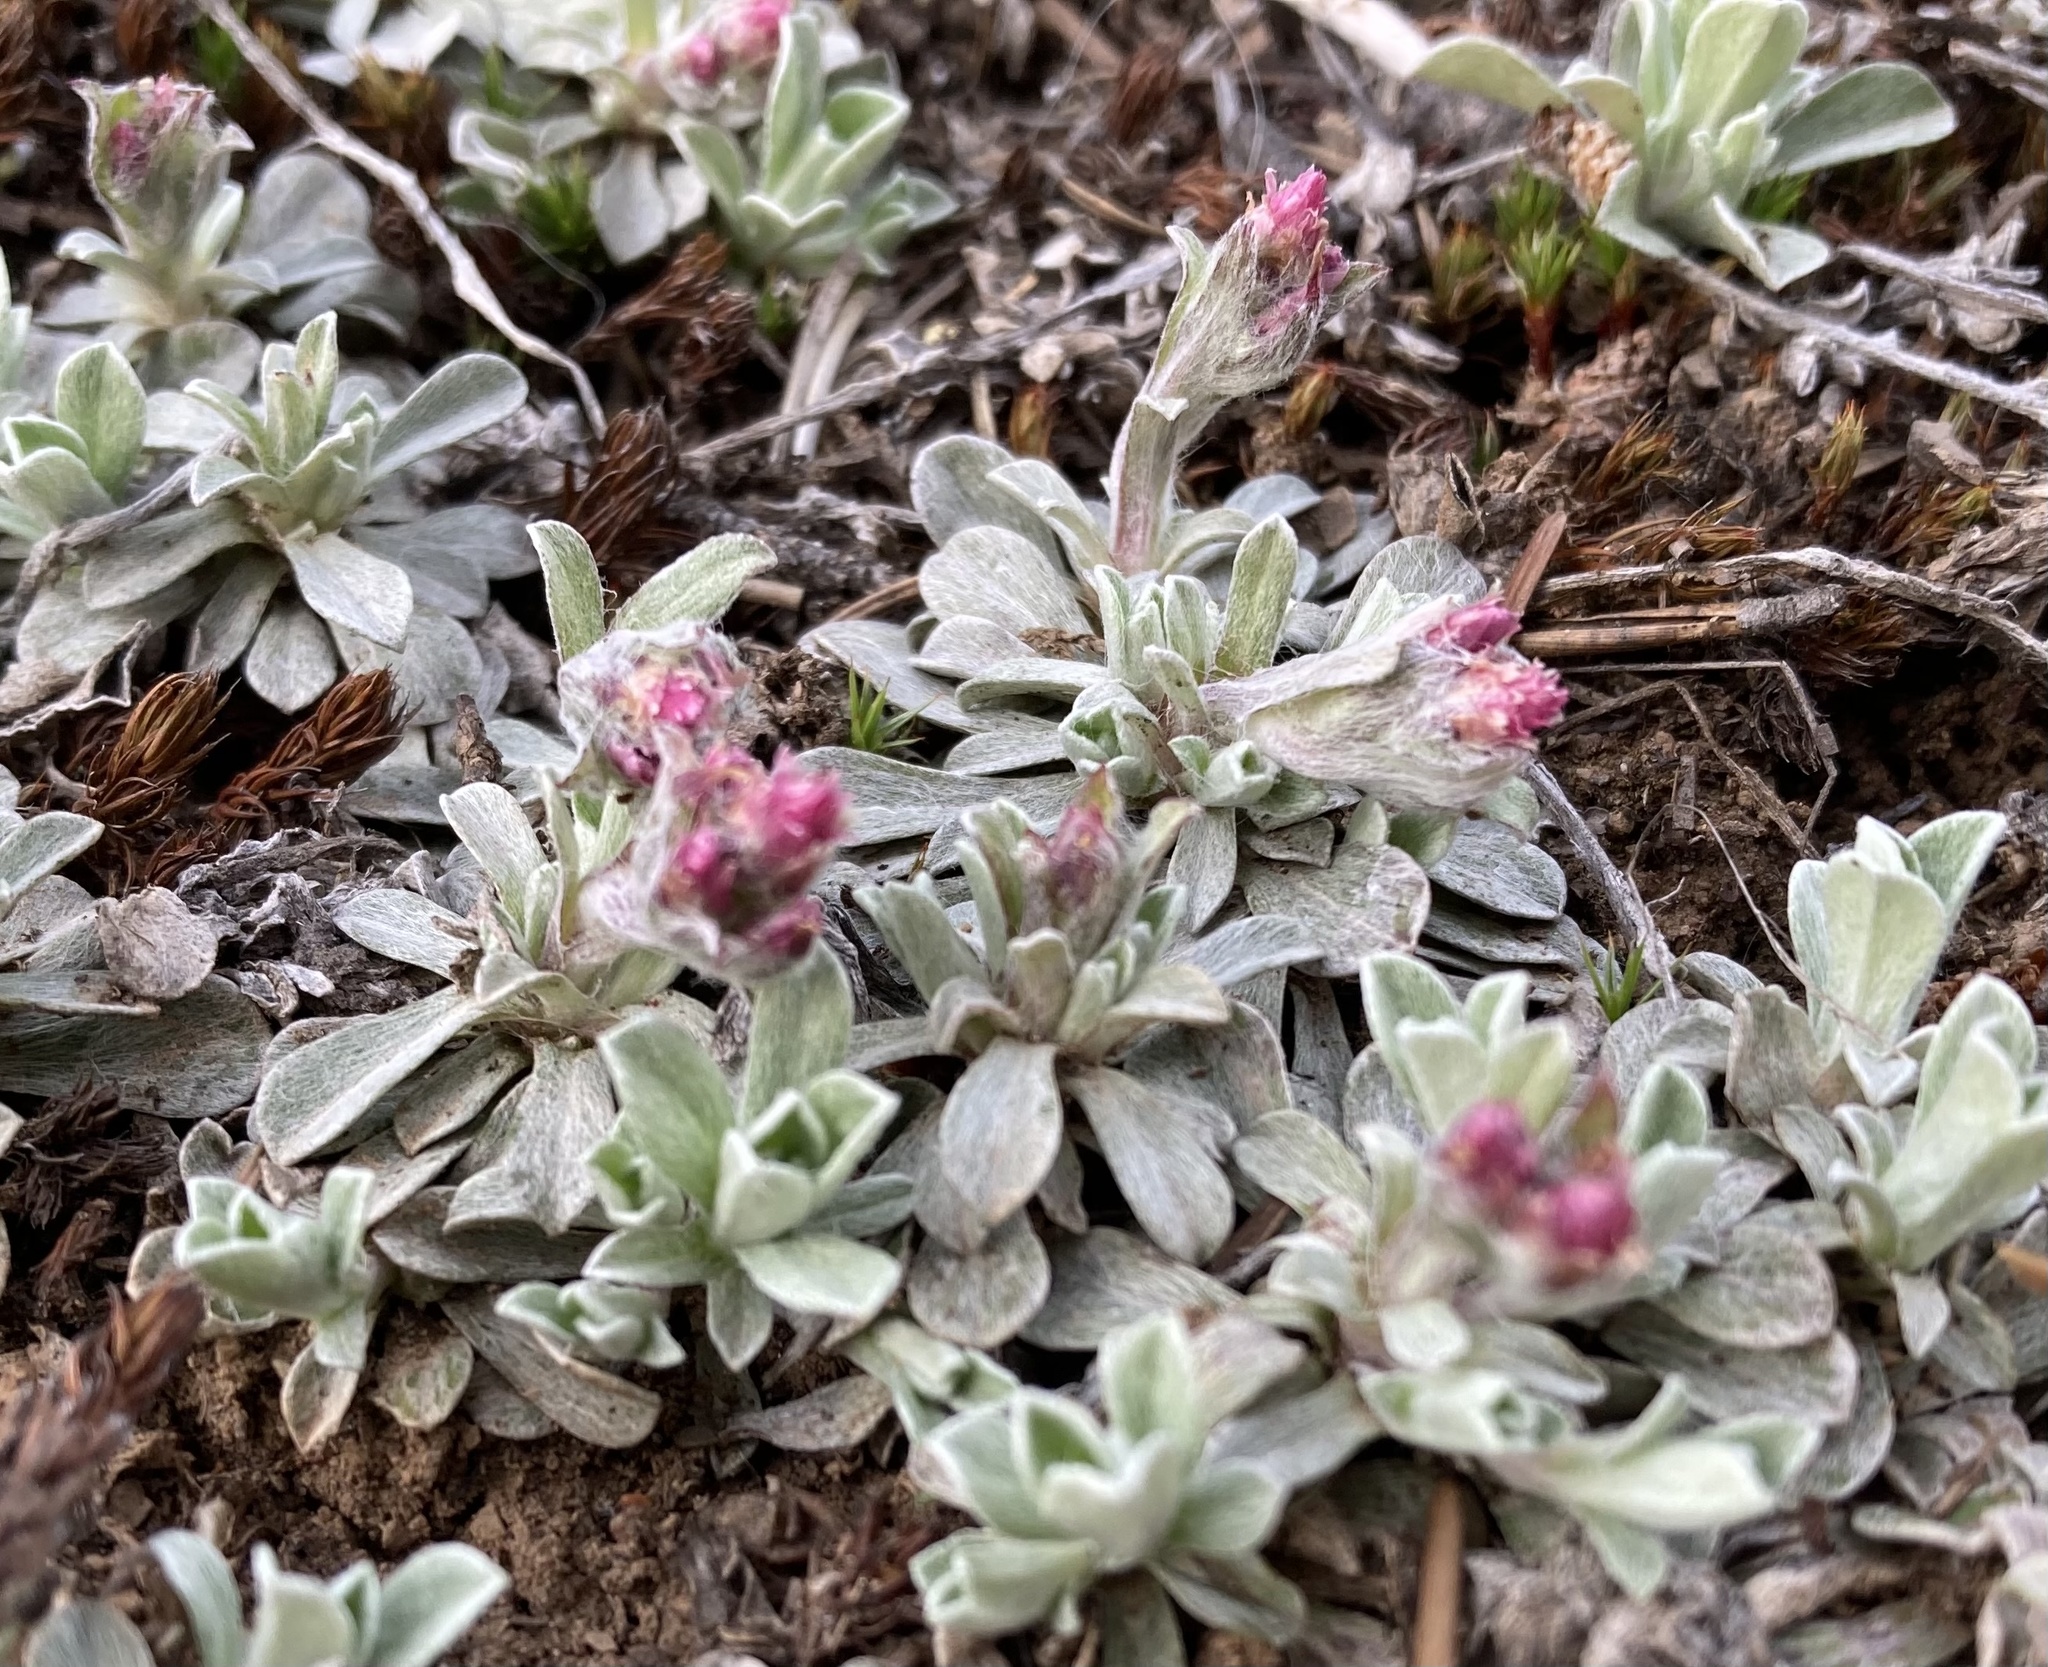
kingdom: Plantae
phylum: Tracheophyta
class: Magnoliopsida
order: Asterales
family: Asteraceae
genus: Antennaria
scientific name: Antennaria rosea
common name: Rosy pussytoes
